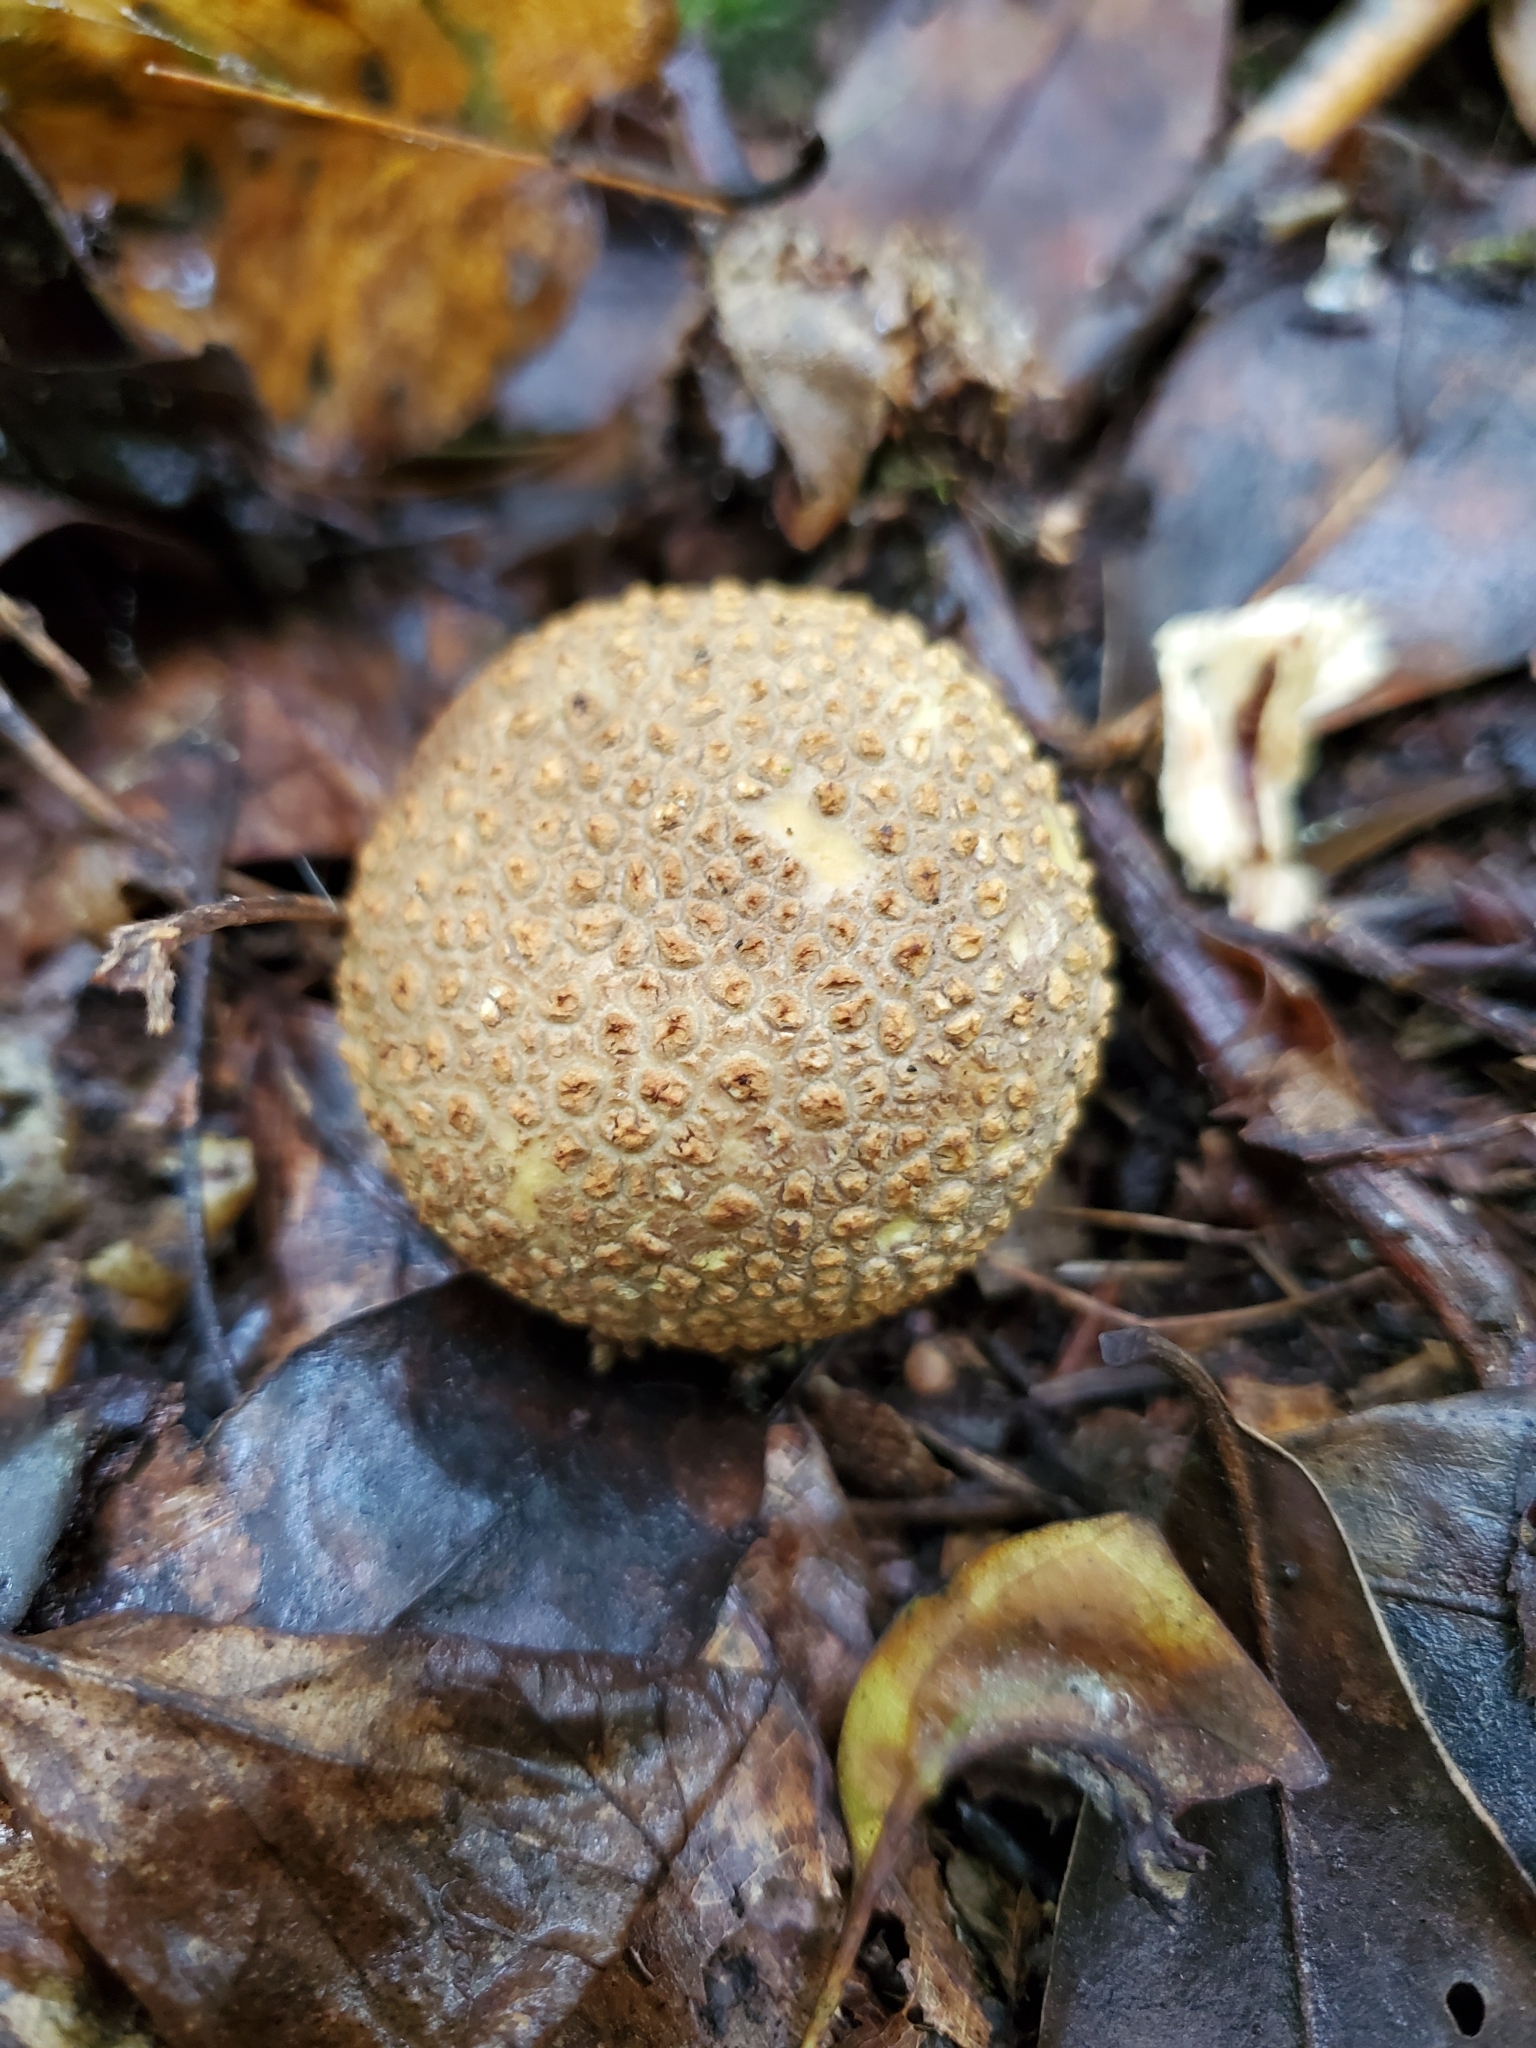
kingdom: Fungi
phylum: Basidiomycota
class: Agaricomycetes
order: Boletales
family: Sclerodermataceae
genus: Scleroderma
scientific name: Scleroderma citrinum
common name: Common earthball
